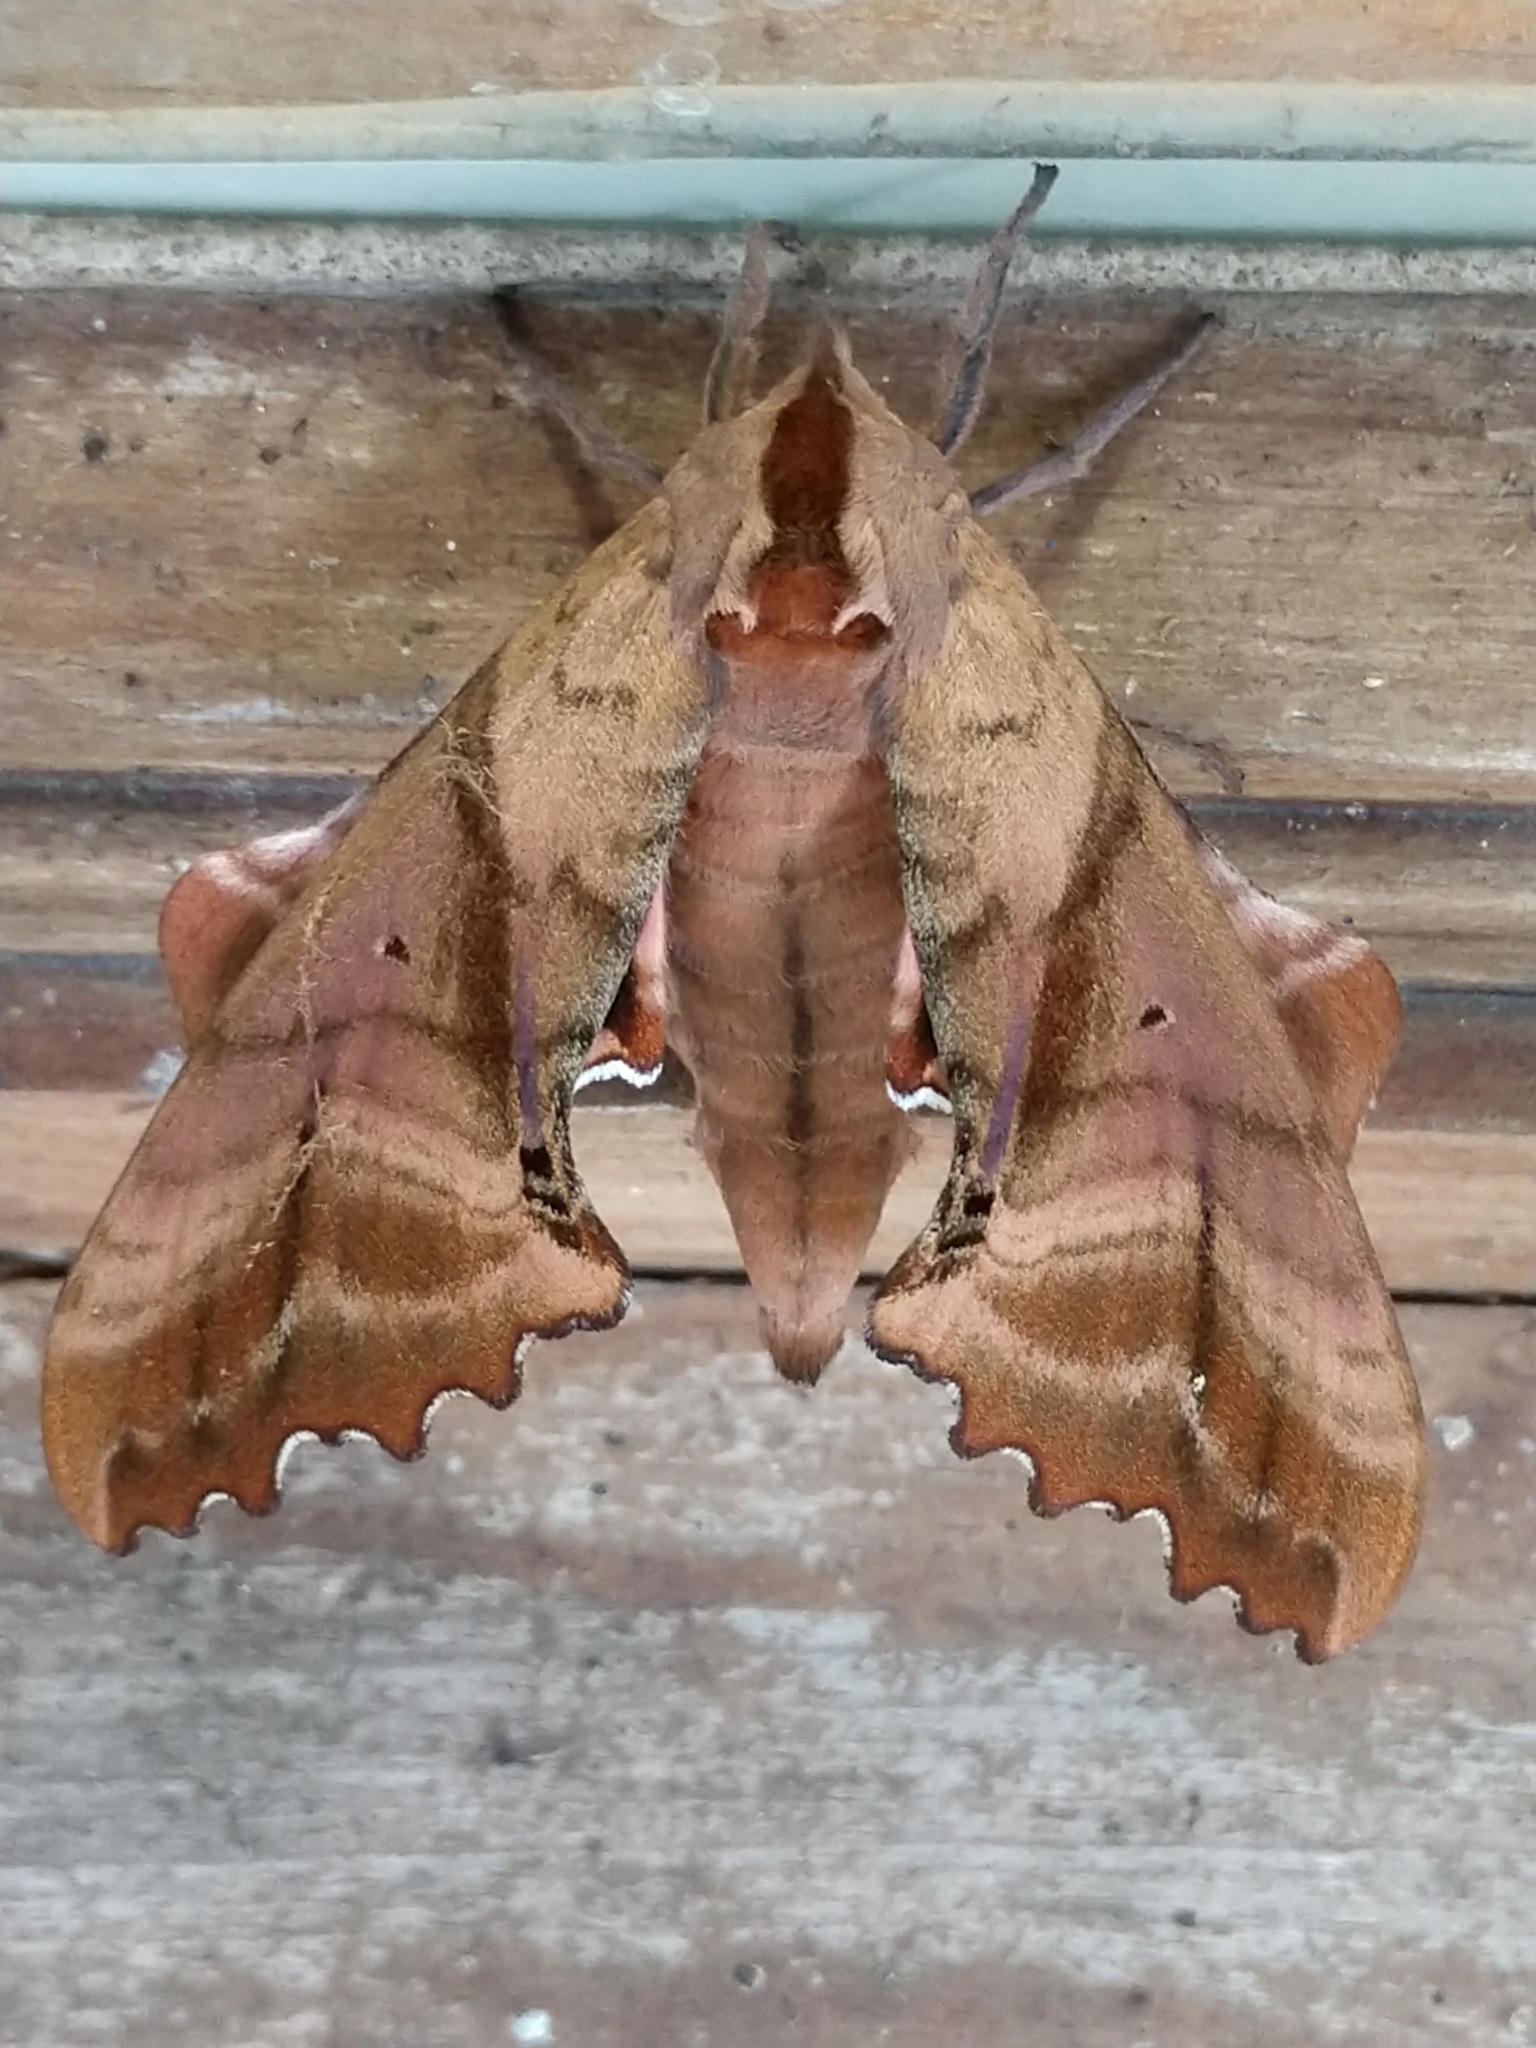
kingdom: Animalia
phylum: Arthropoda
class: Insecta
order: Lepidoptera
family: Sphingidae
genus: Paonias
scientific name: Paonias excaecata
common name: Blind-eyed sphinx
